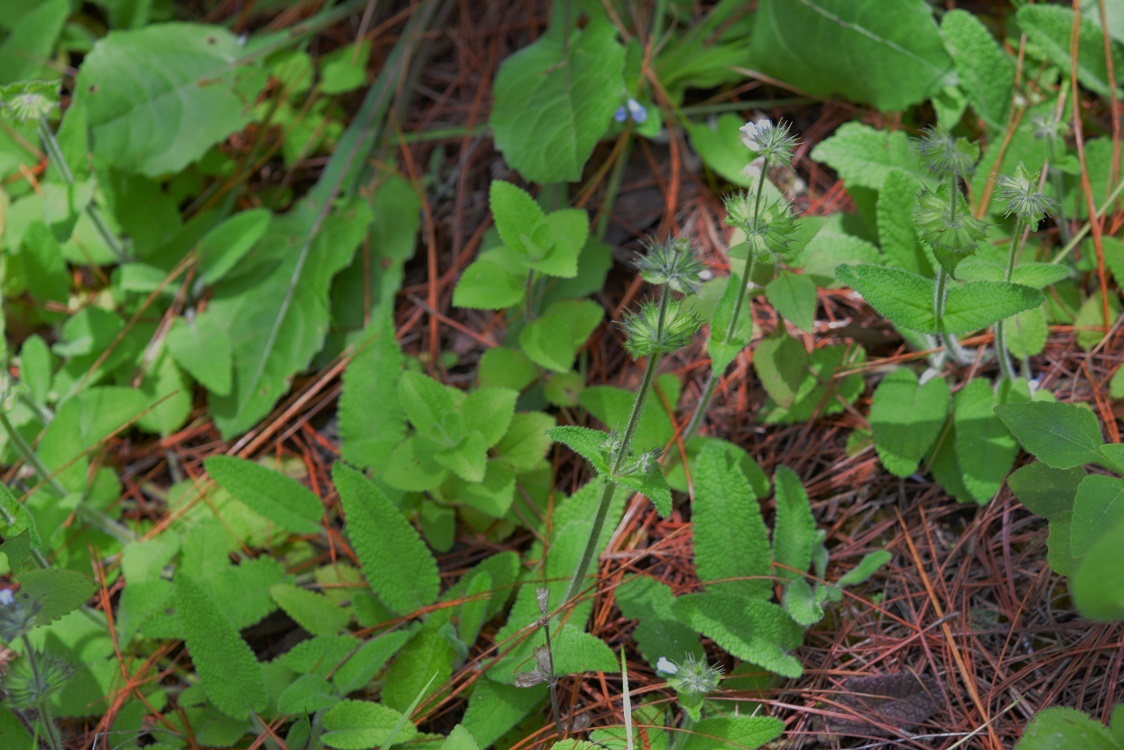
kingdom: Plantae
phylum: Tracheophyta
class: Magnoliopsida
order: Lamiales
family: Lamiaceae
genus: Lepechinia
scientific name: Lepechinia schiedeana
